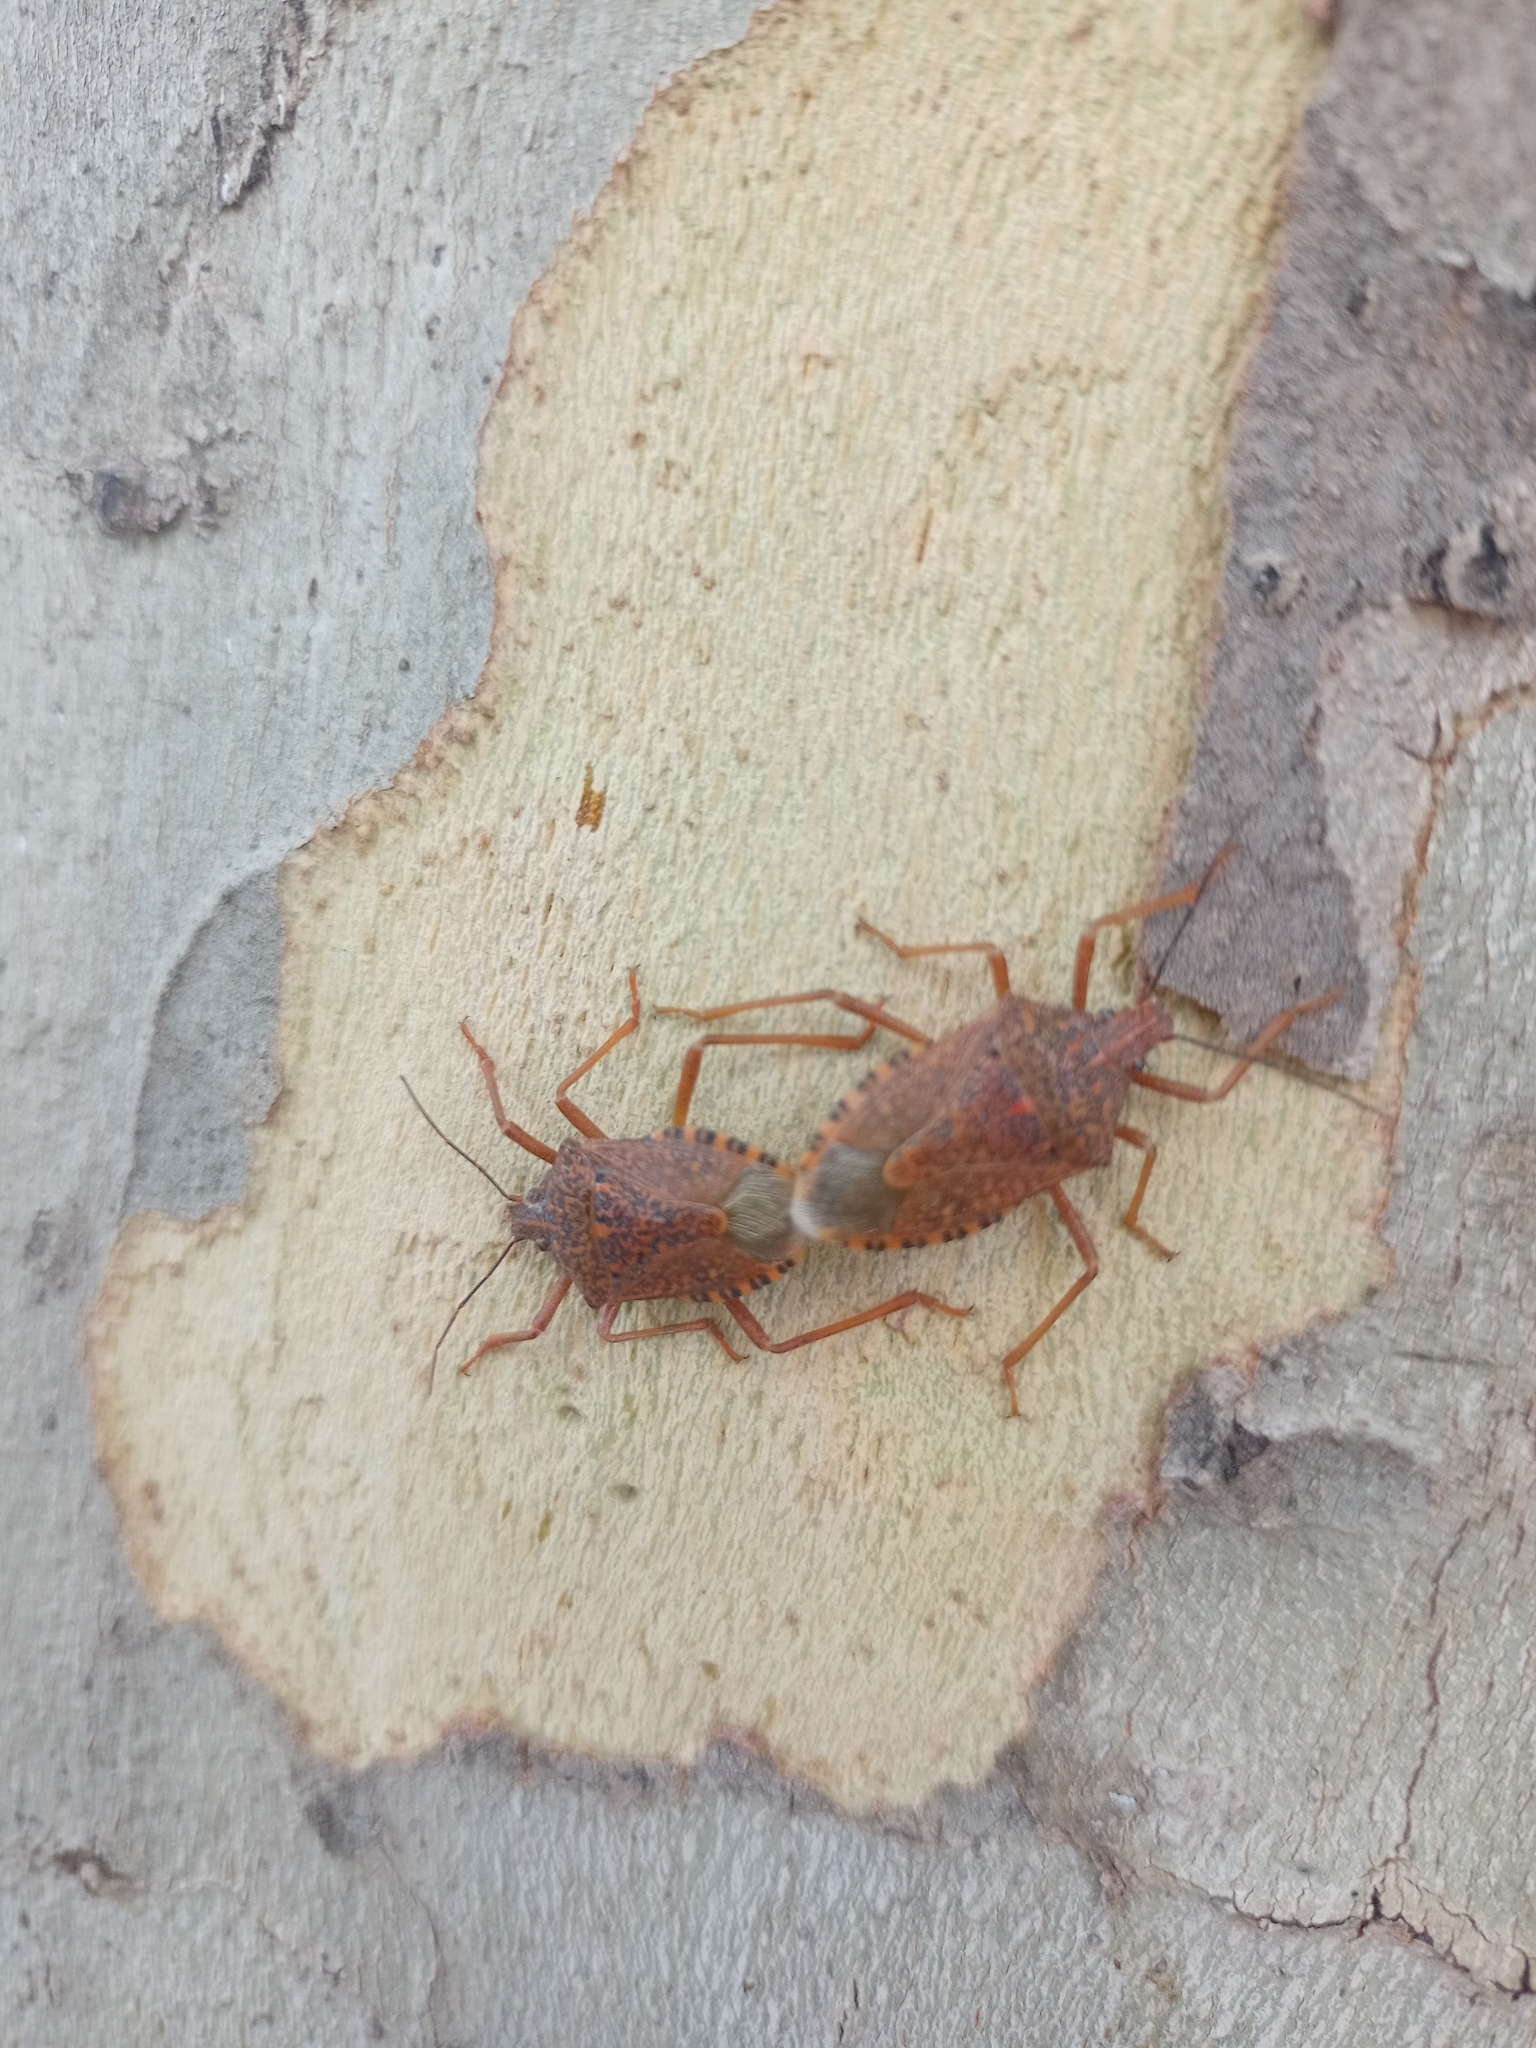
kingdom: Animalia
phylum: Arthropoda
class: Insecta
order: Hemiptera
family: Pentatomidae
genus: Apodiphus
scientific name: Apodiphus
